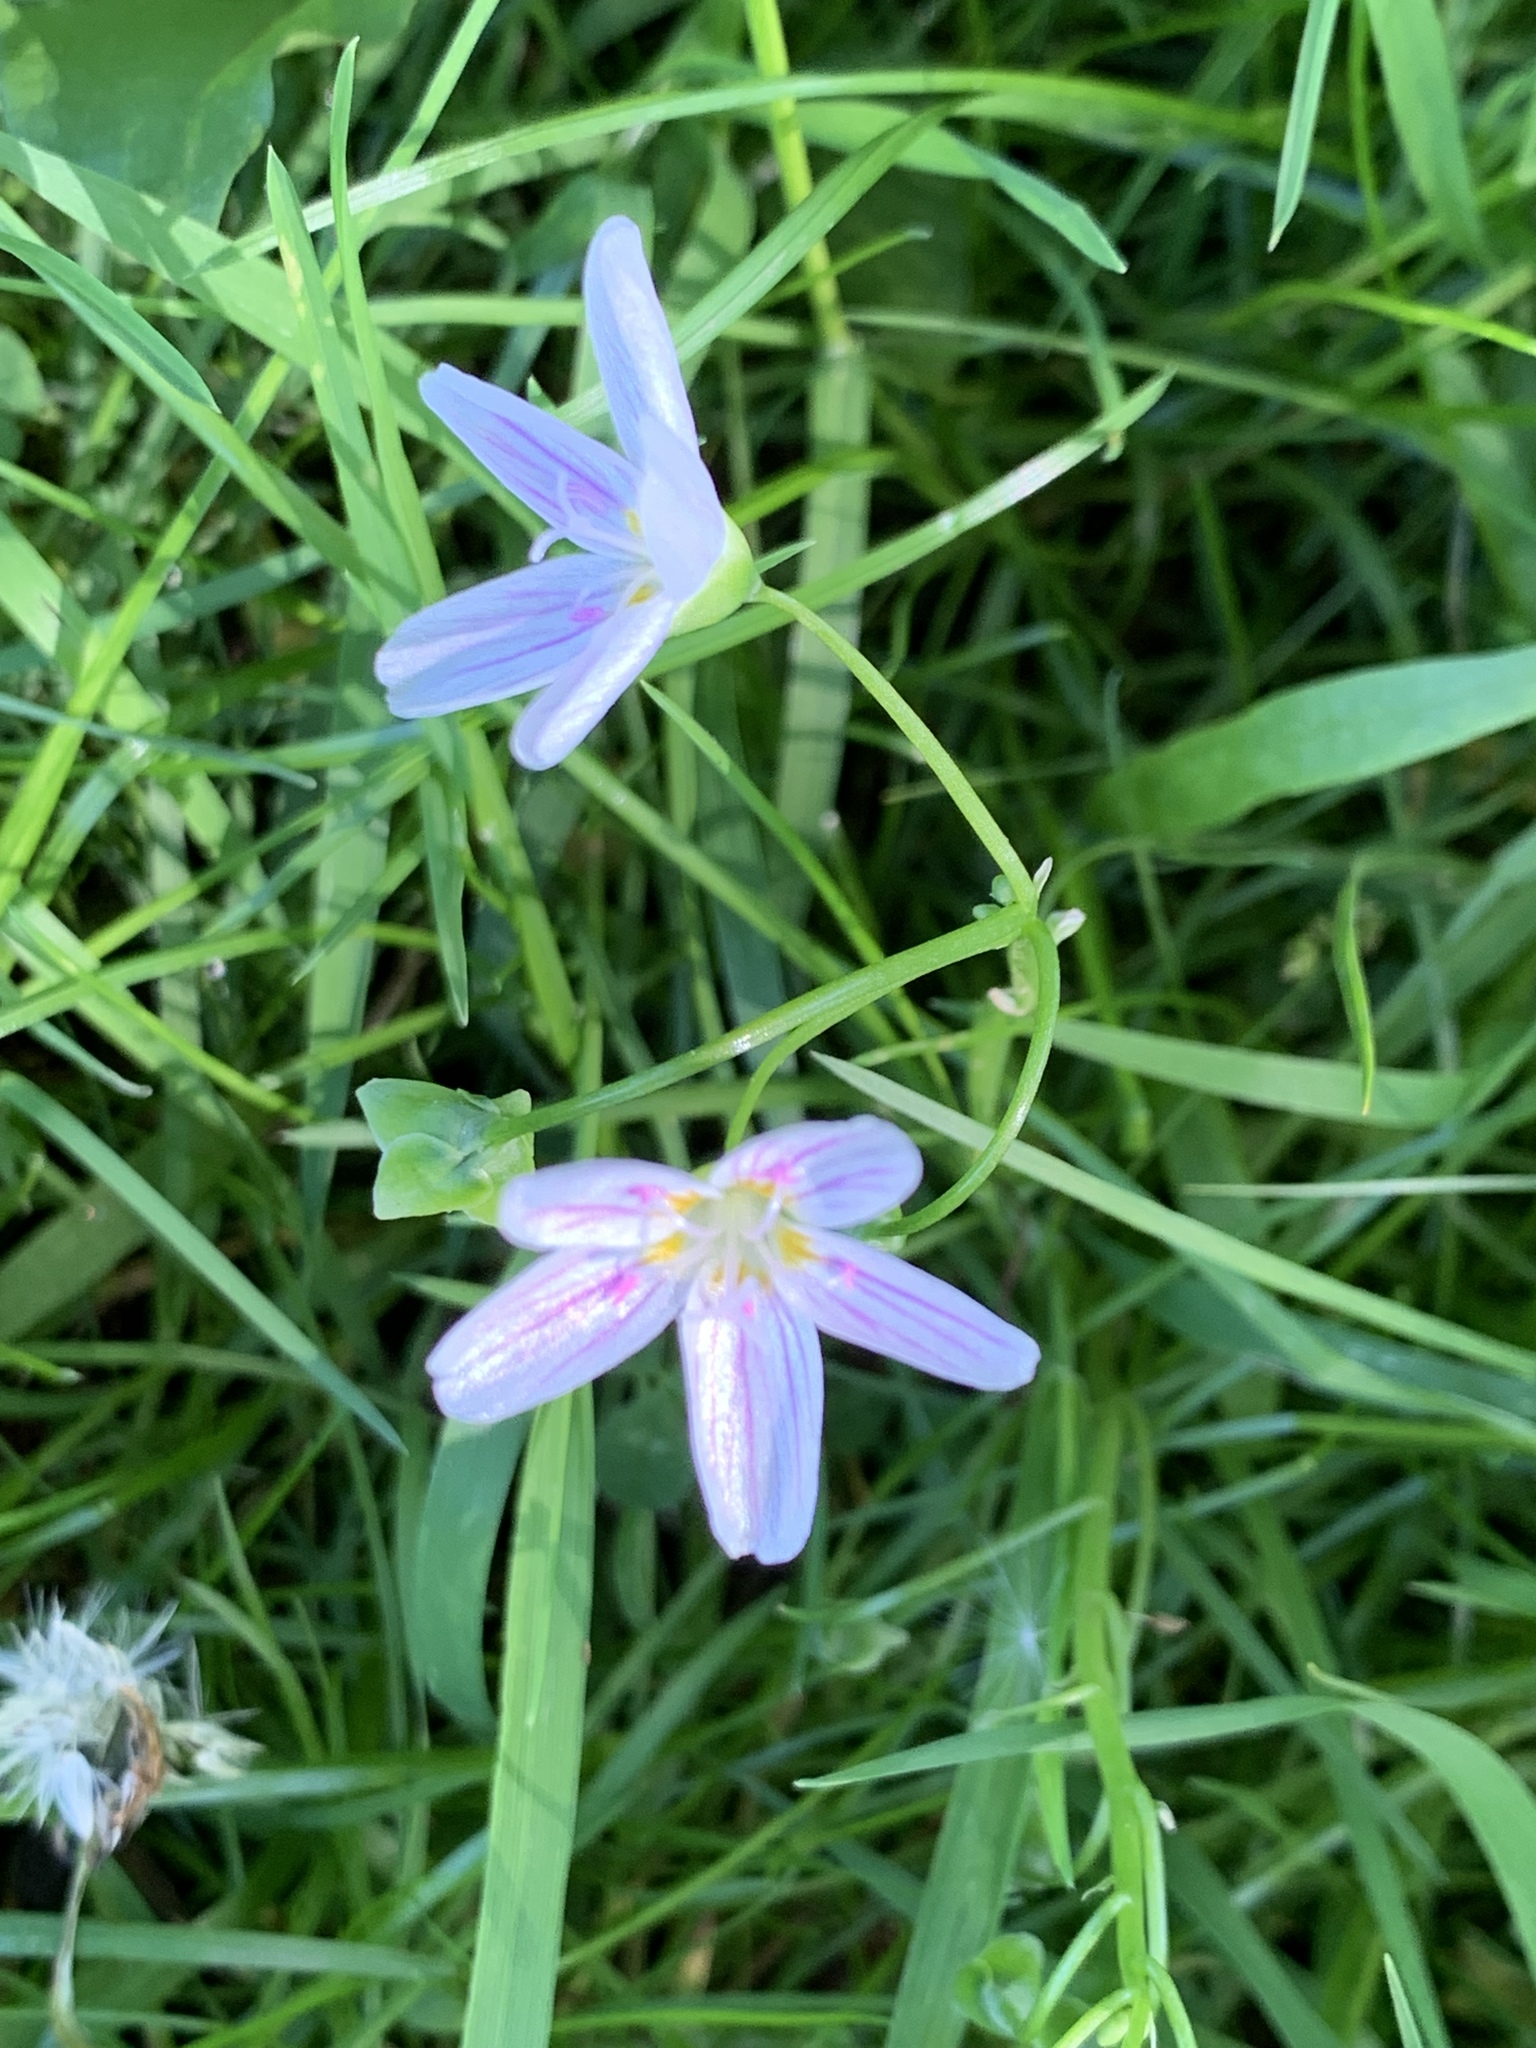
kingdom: Plantae
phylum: Tracheophyta
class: Magnoliopsida
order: Caryophyllales
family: Montiaceae
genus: Claytonia
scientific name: Claytonia virginica
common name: Virginia springbeauty
